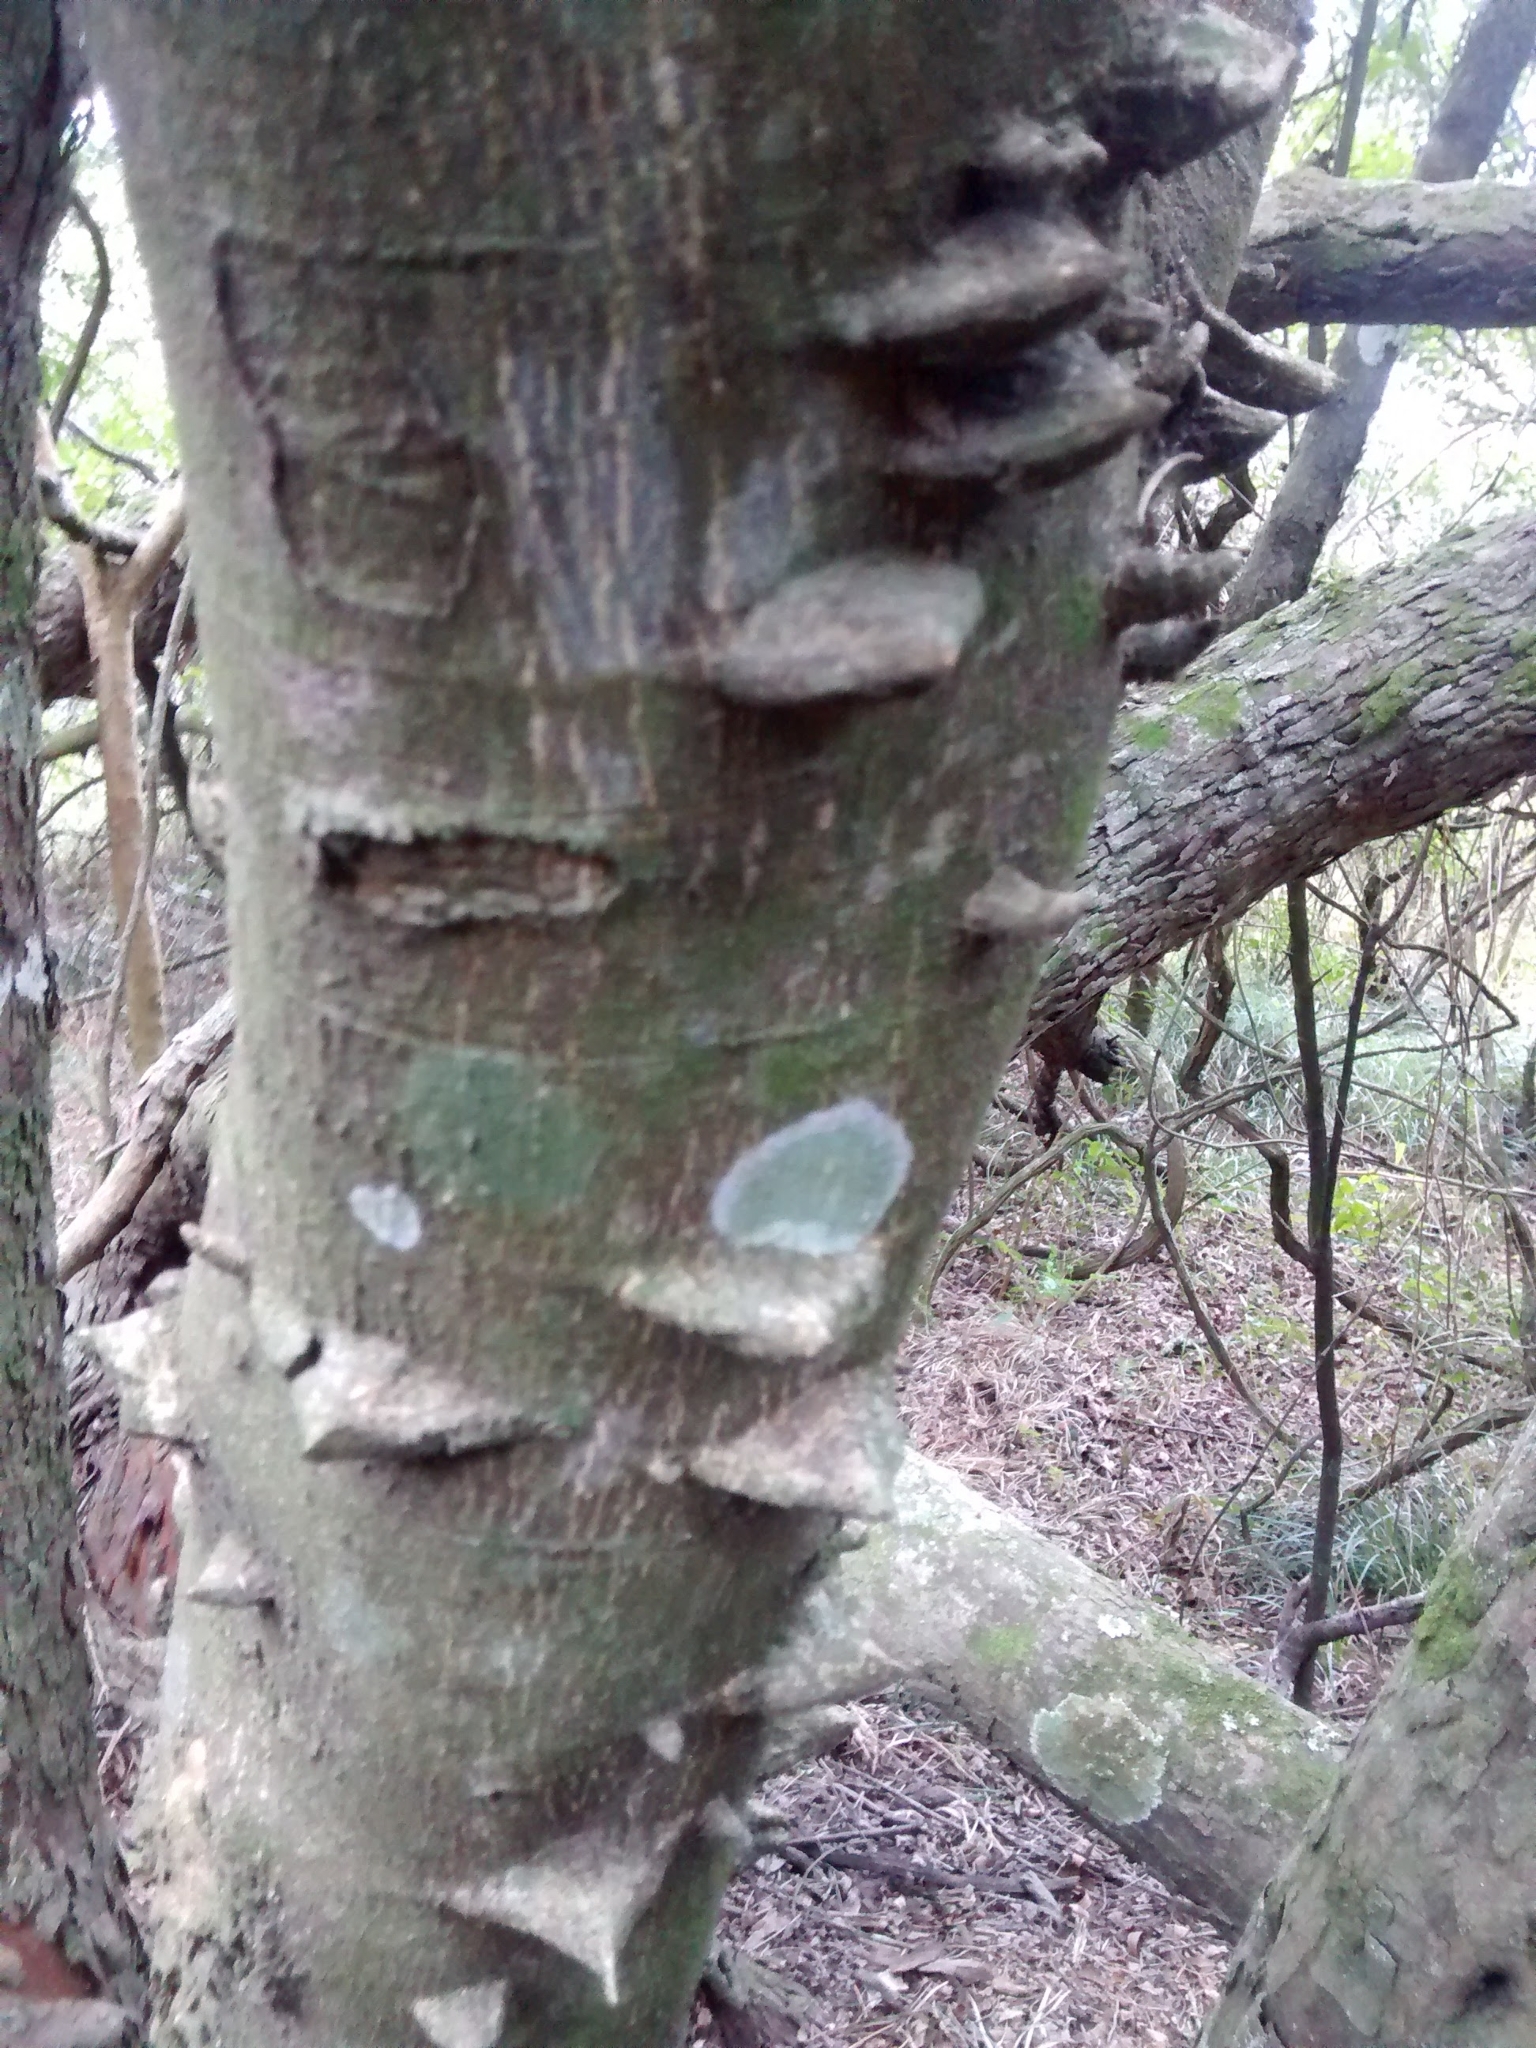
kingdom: Plantae
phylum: Tracheophyta
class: Magnoliopsida
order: Sapindales
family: Rutaceae
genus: Zanthoxylum
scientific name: Zanthoxylum rhoifolium
